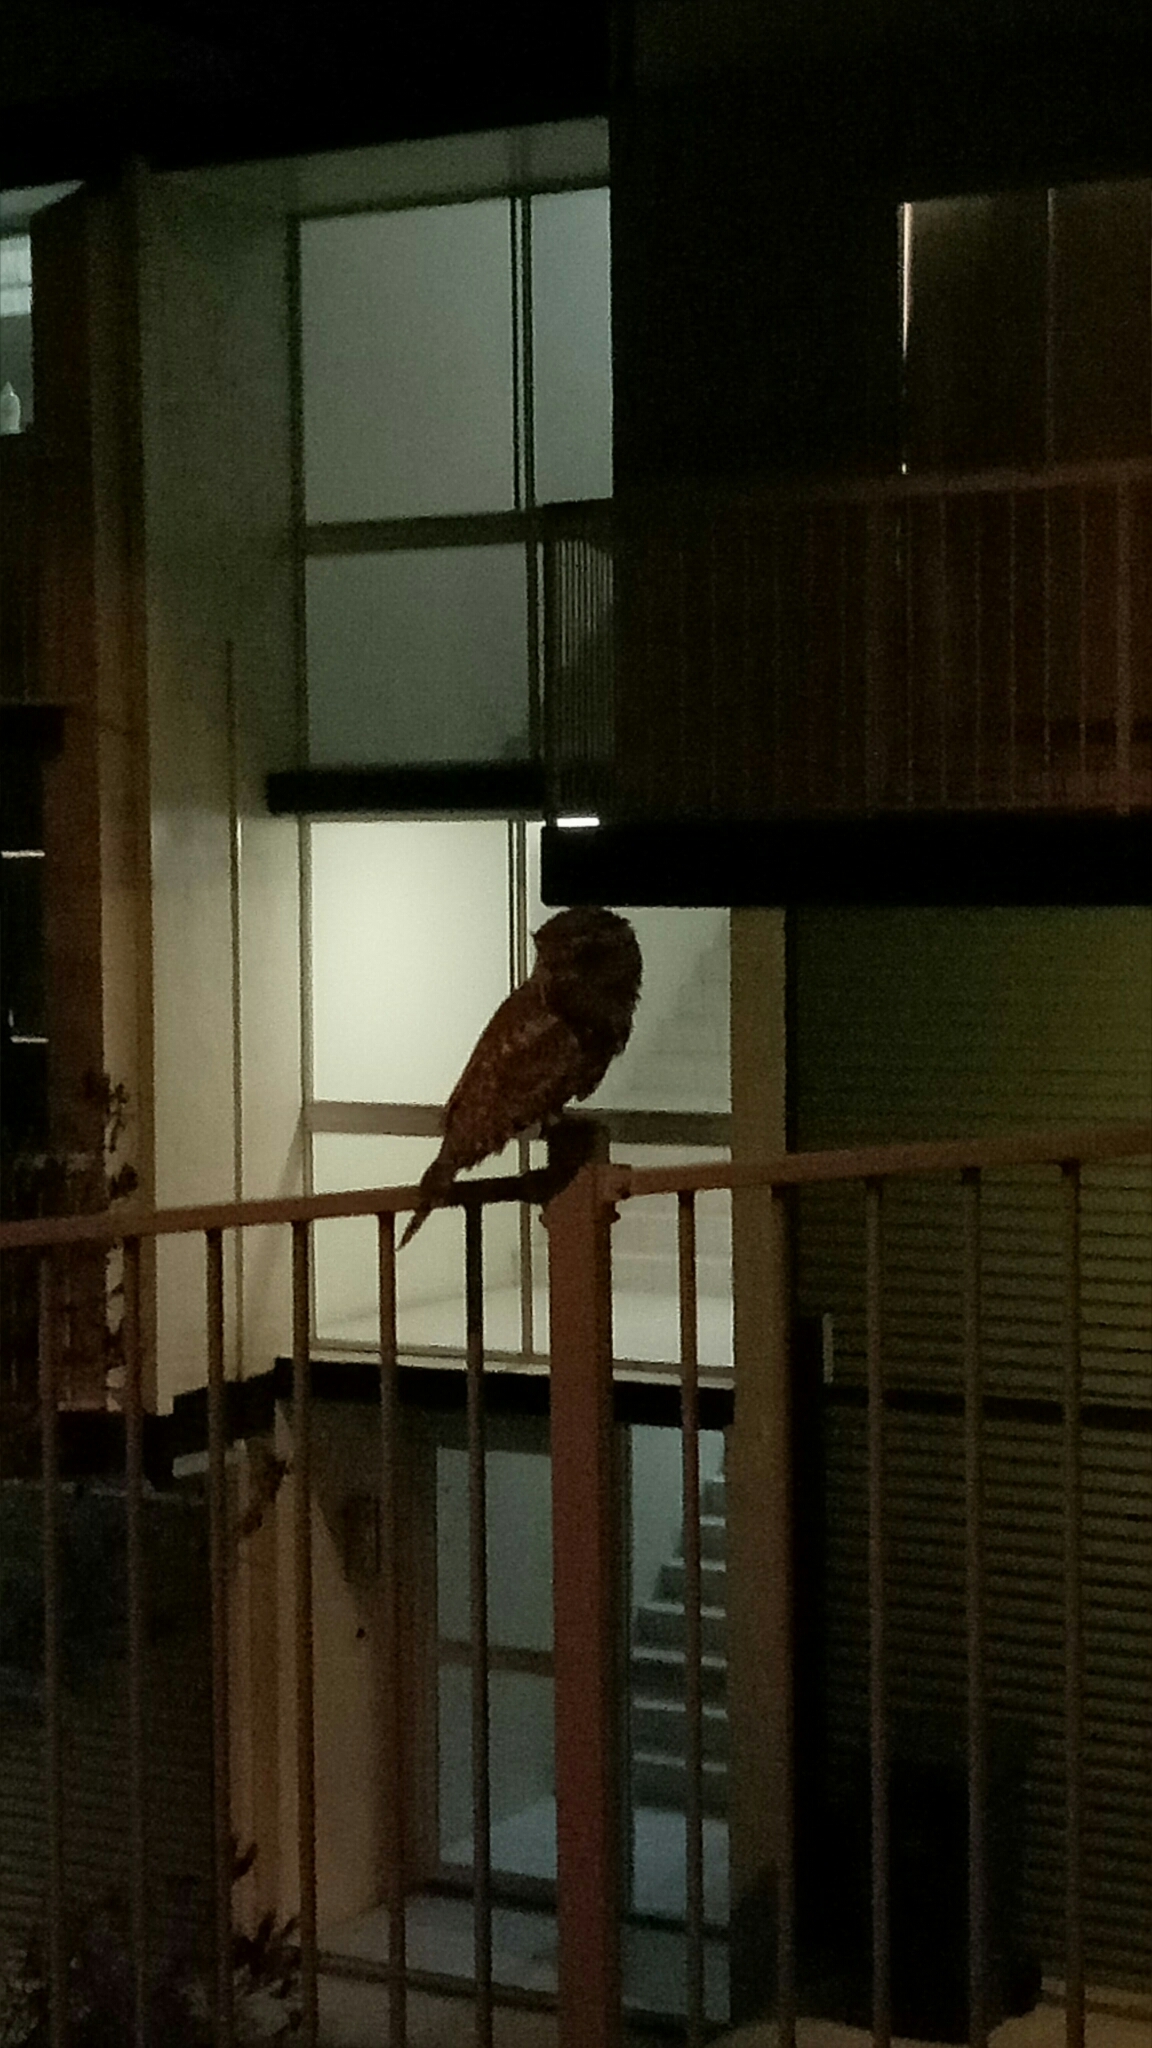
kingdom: Animalia
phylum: Chordata
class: Aves
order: Caprimulgiformes
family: Podargidae
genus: Podargus
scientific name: Podargus strigoides
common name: Tawny frogmouth
